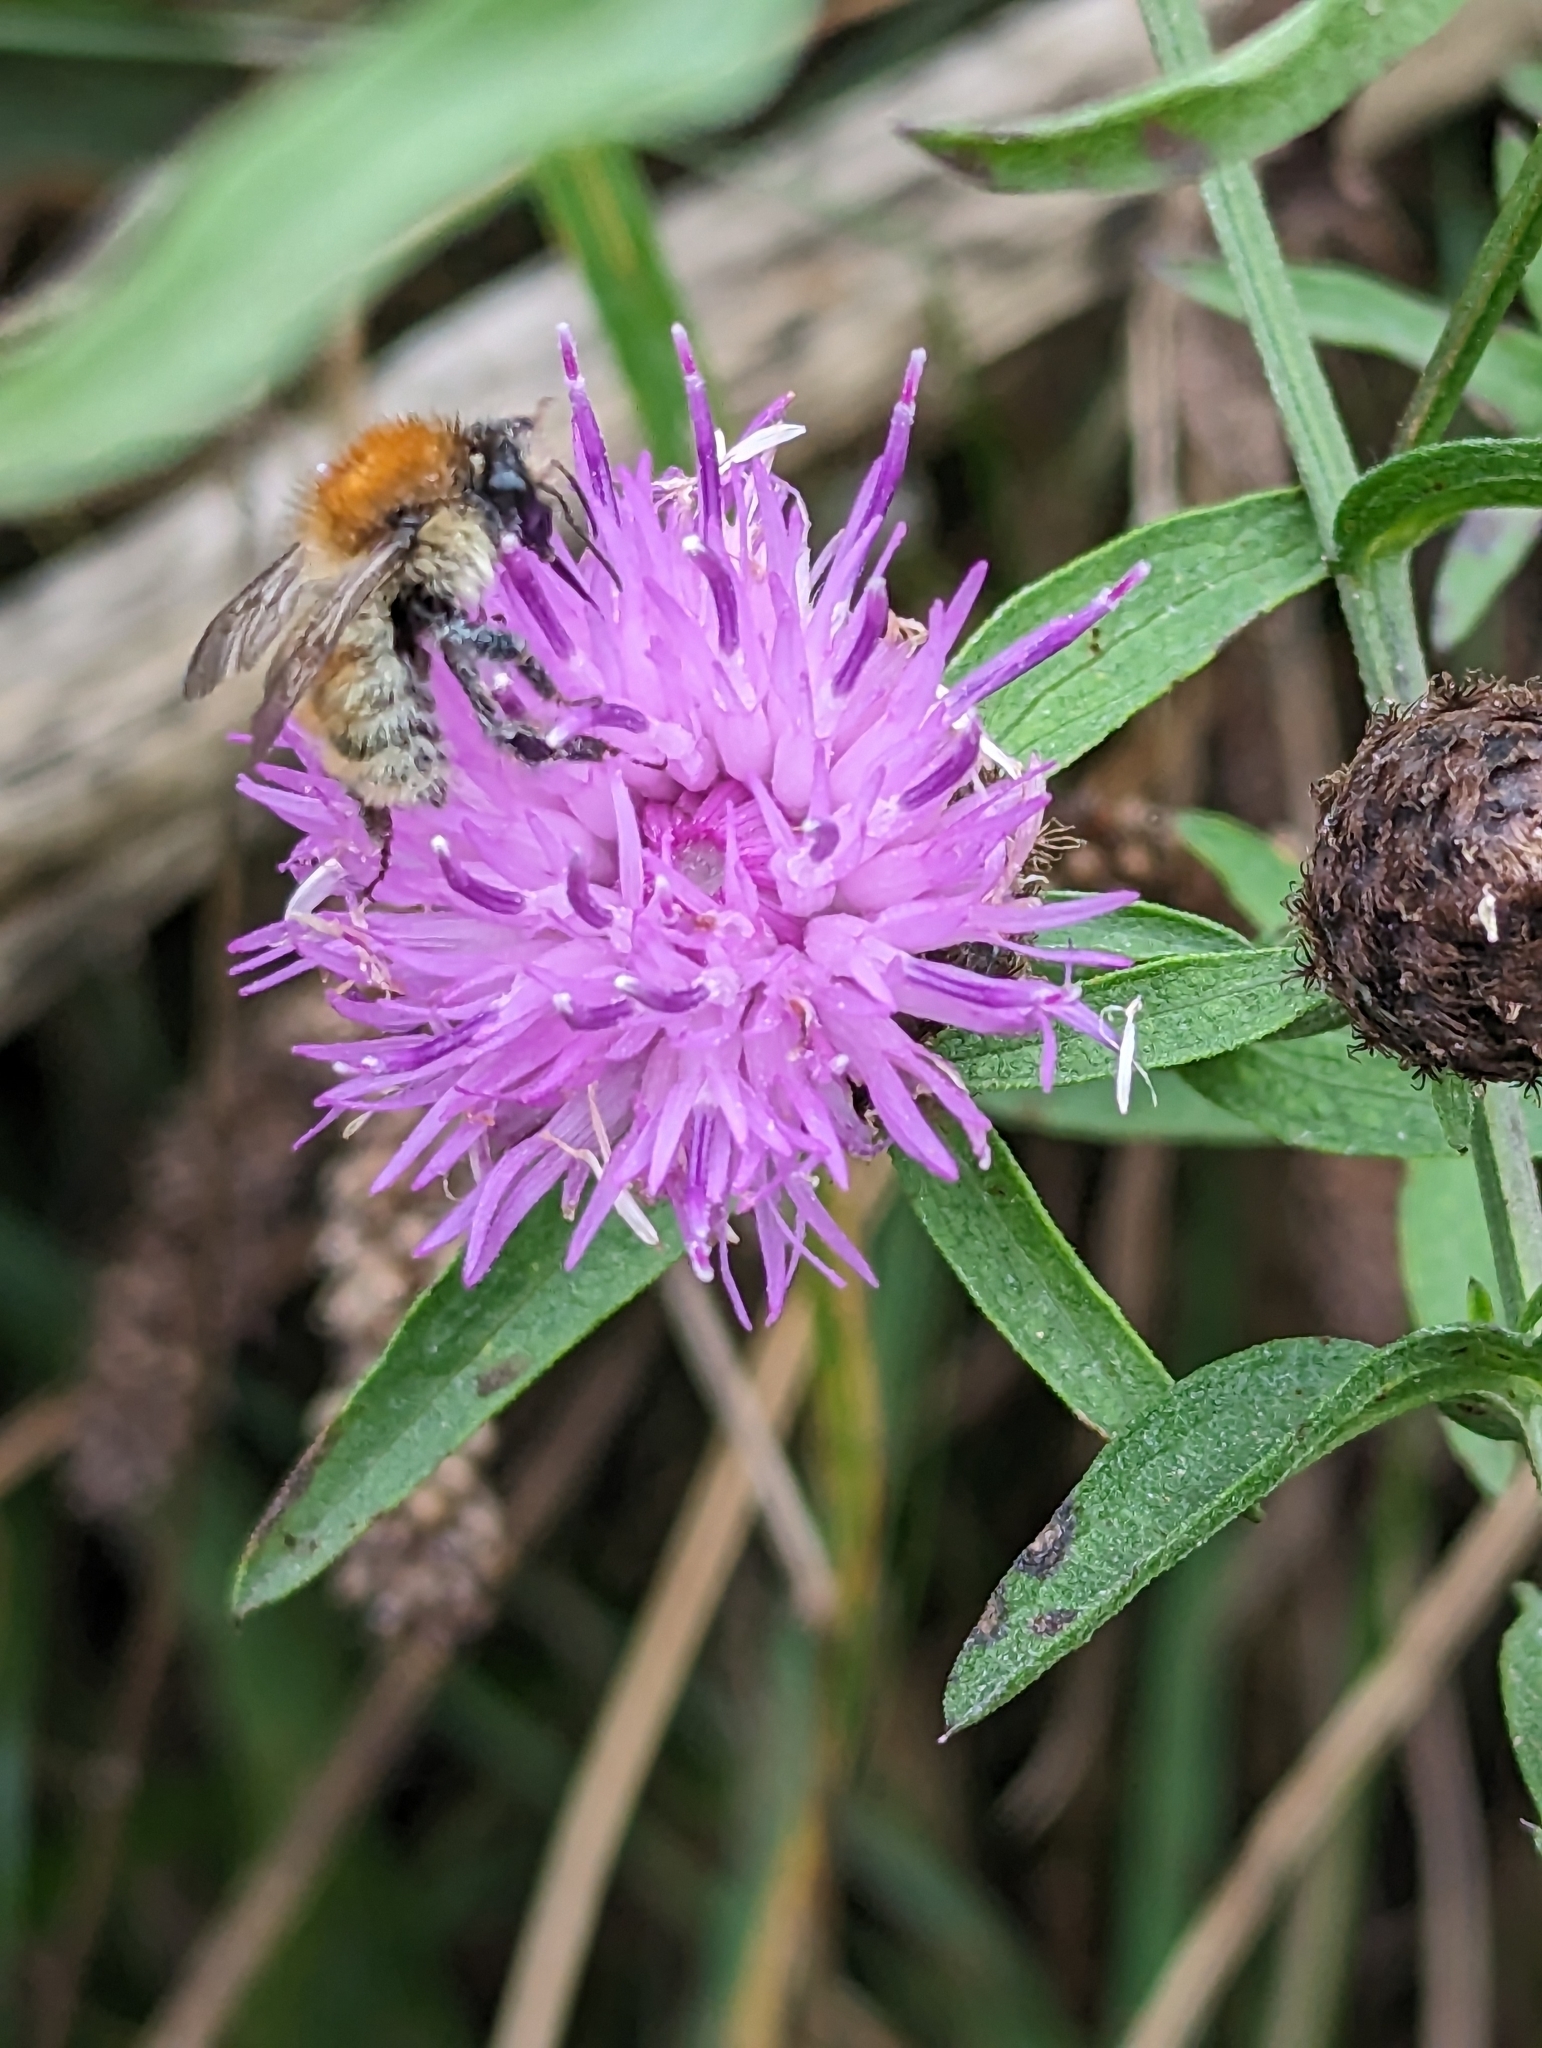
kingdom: Animalia
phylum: Arthropoda
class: Insecta
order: Hymenoptera
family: Apidae
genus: Bombus
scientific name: Bombus humilis
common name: Brown-banded carder-bee
